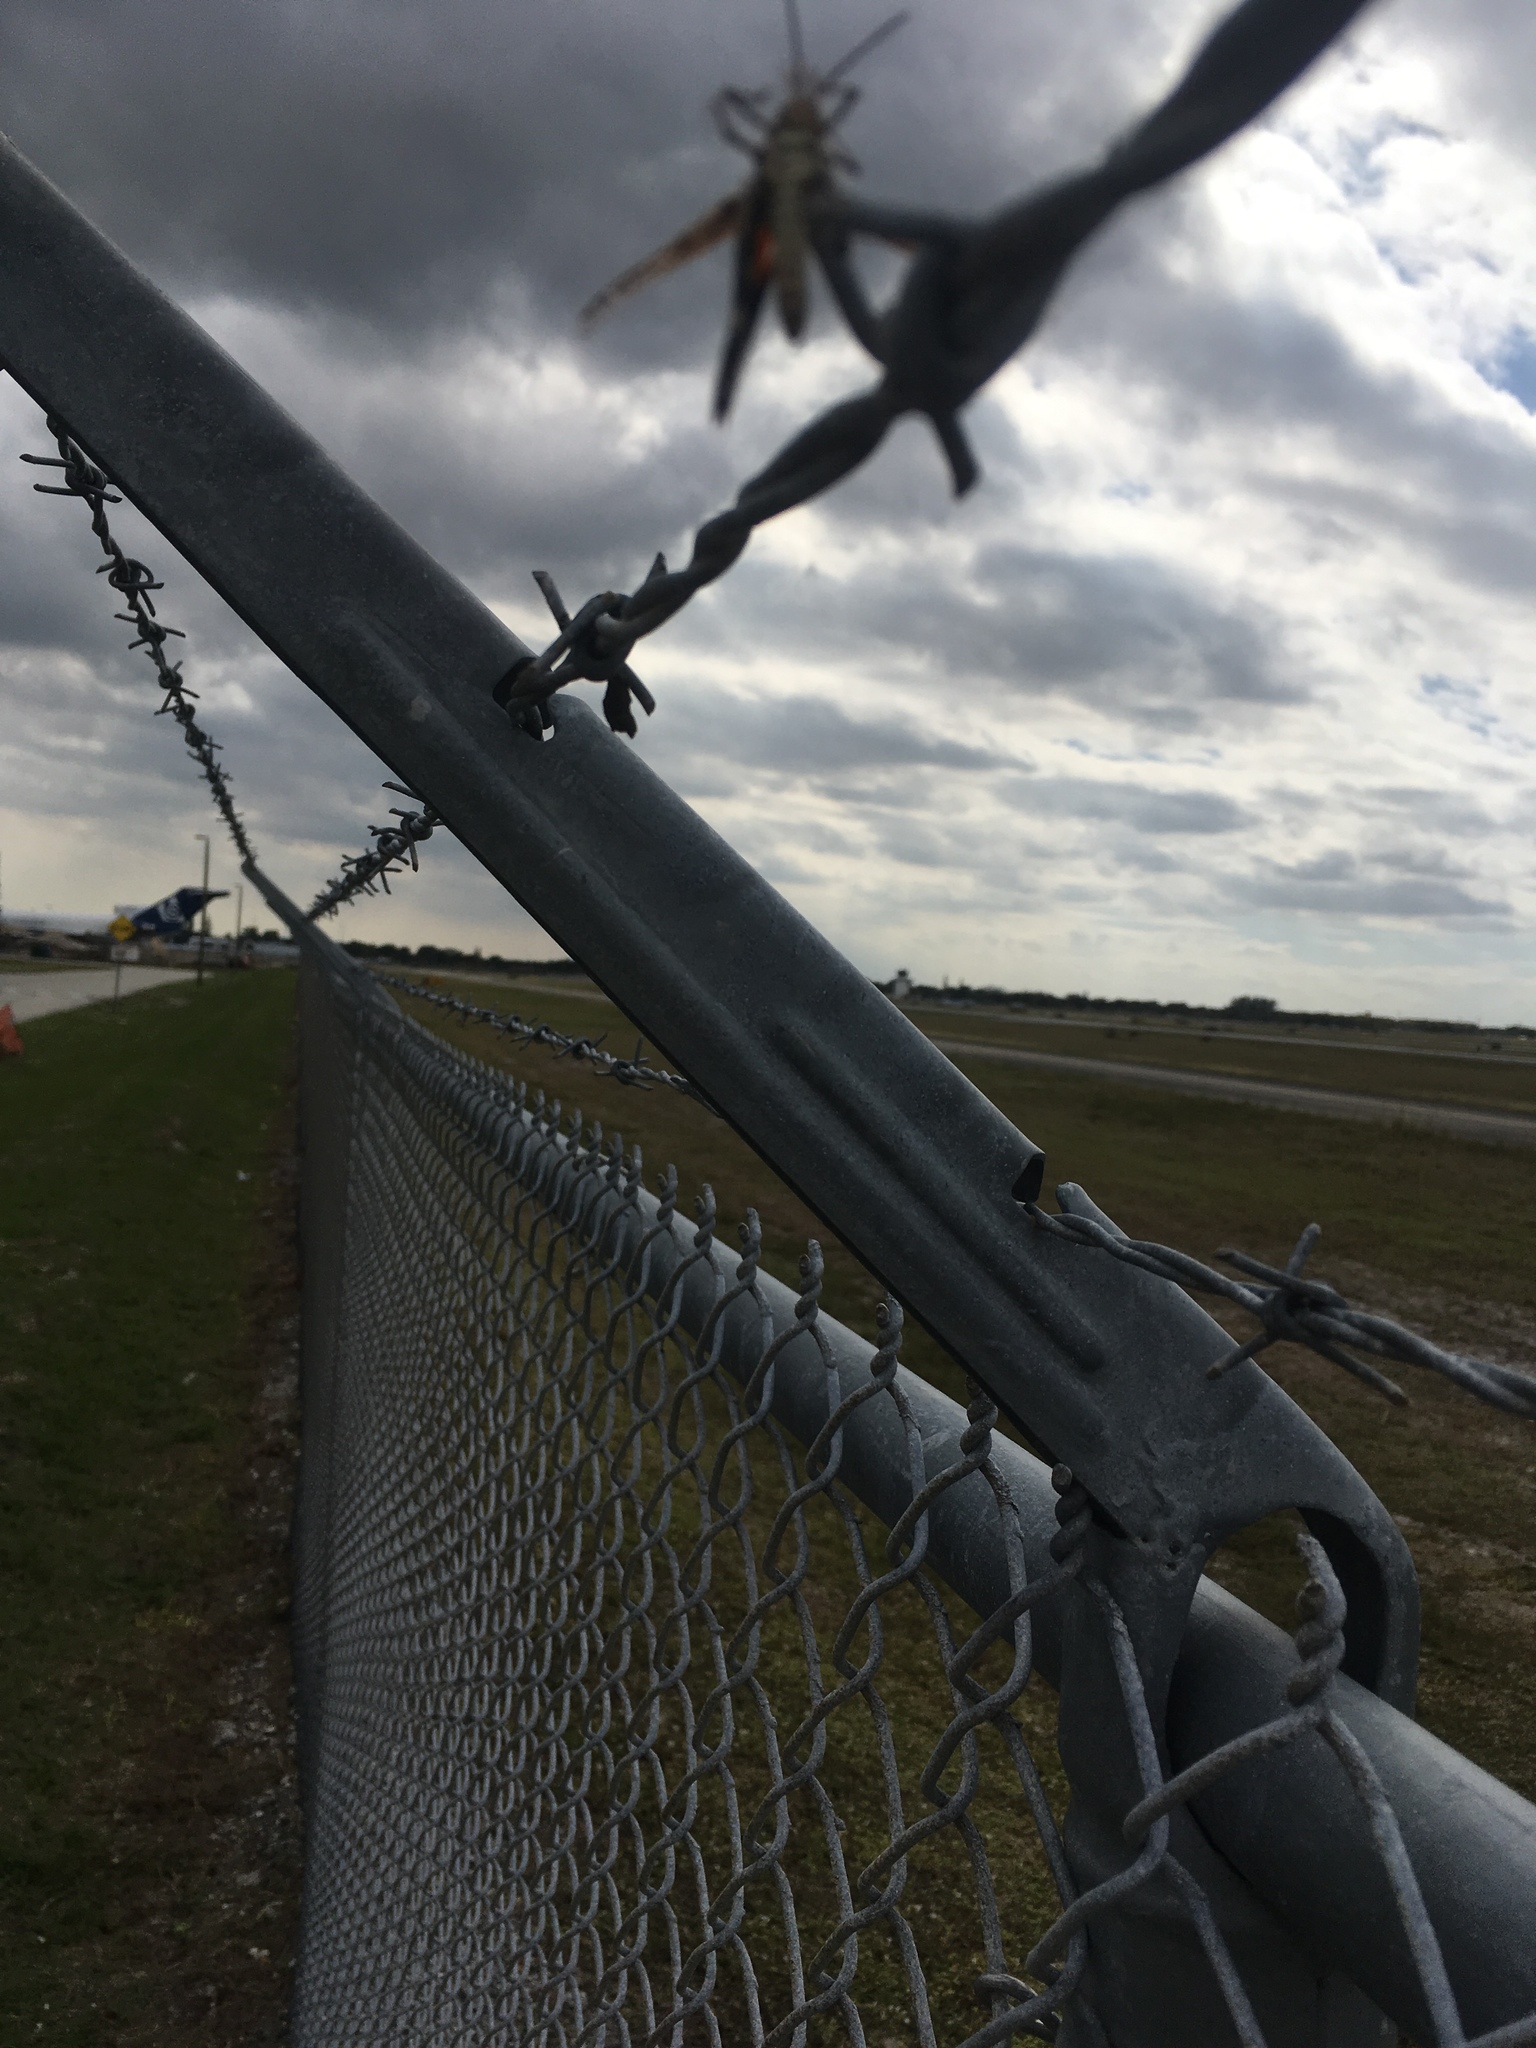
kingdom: Animalia
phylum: Arthropoda
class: Insecta
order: Orthoptera
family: Acrididae
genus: Psinidia
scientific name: Psinidia fenestralis
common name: Long-horned locust
